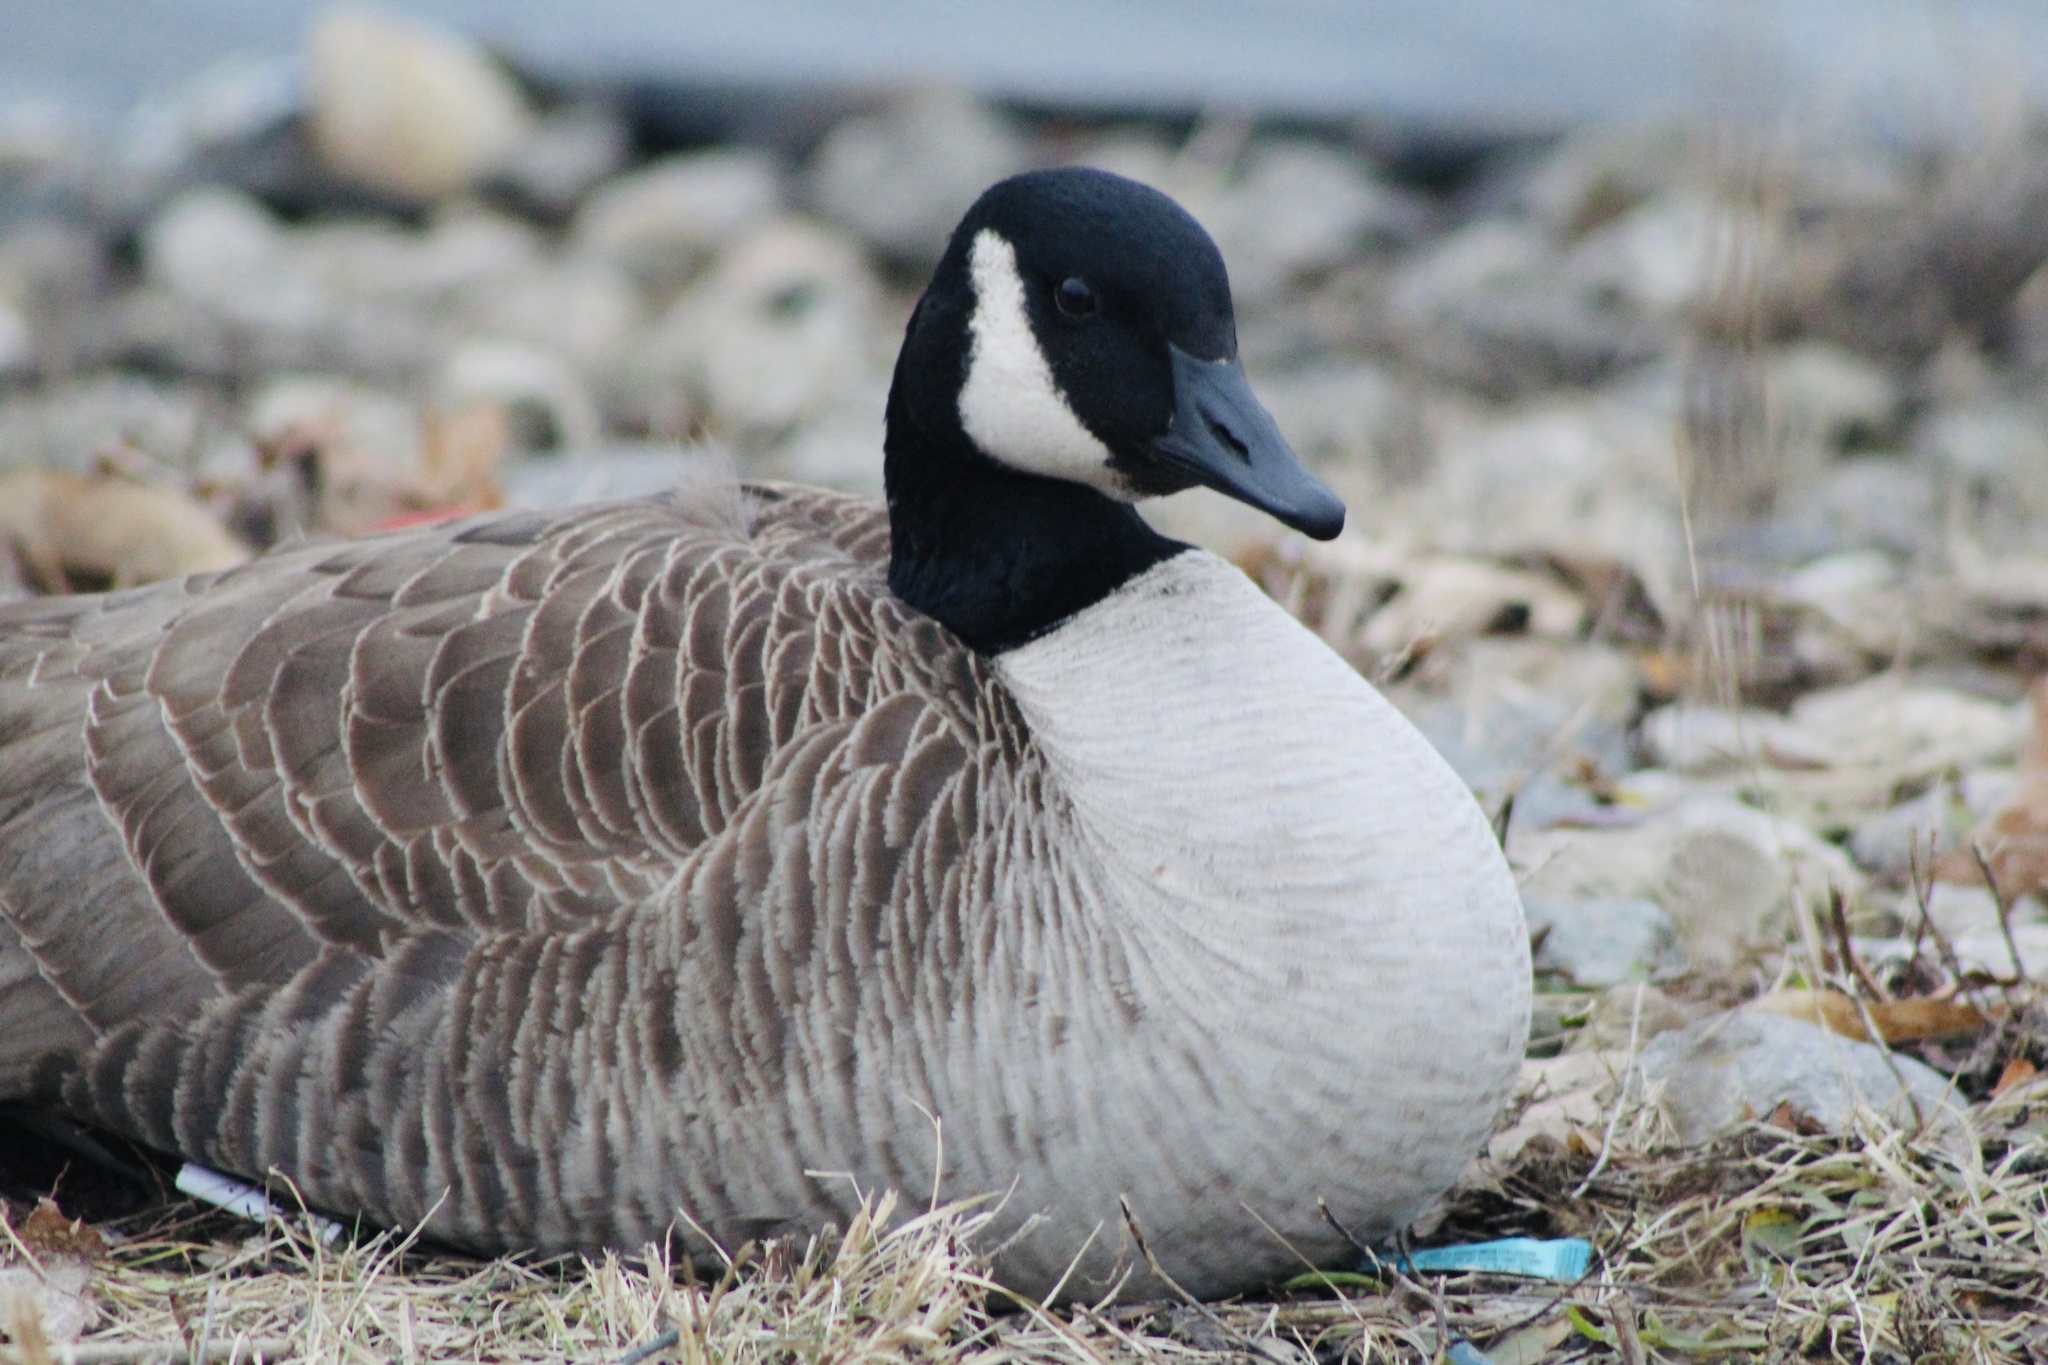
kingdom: Animalia
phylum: Chordata
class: Aves
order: Anseriformes
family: Anatidae
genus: Branta
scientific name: Branta canadensis
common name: Canada goose
